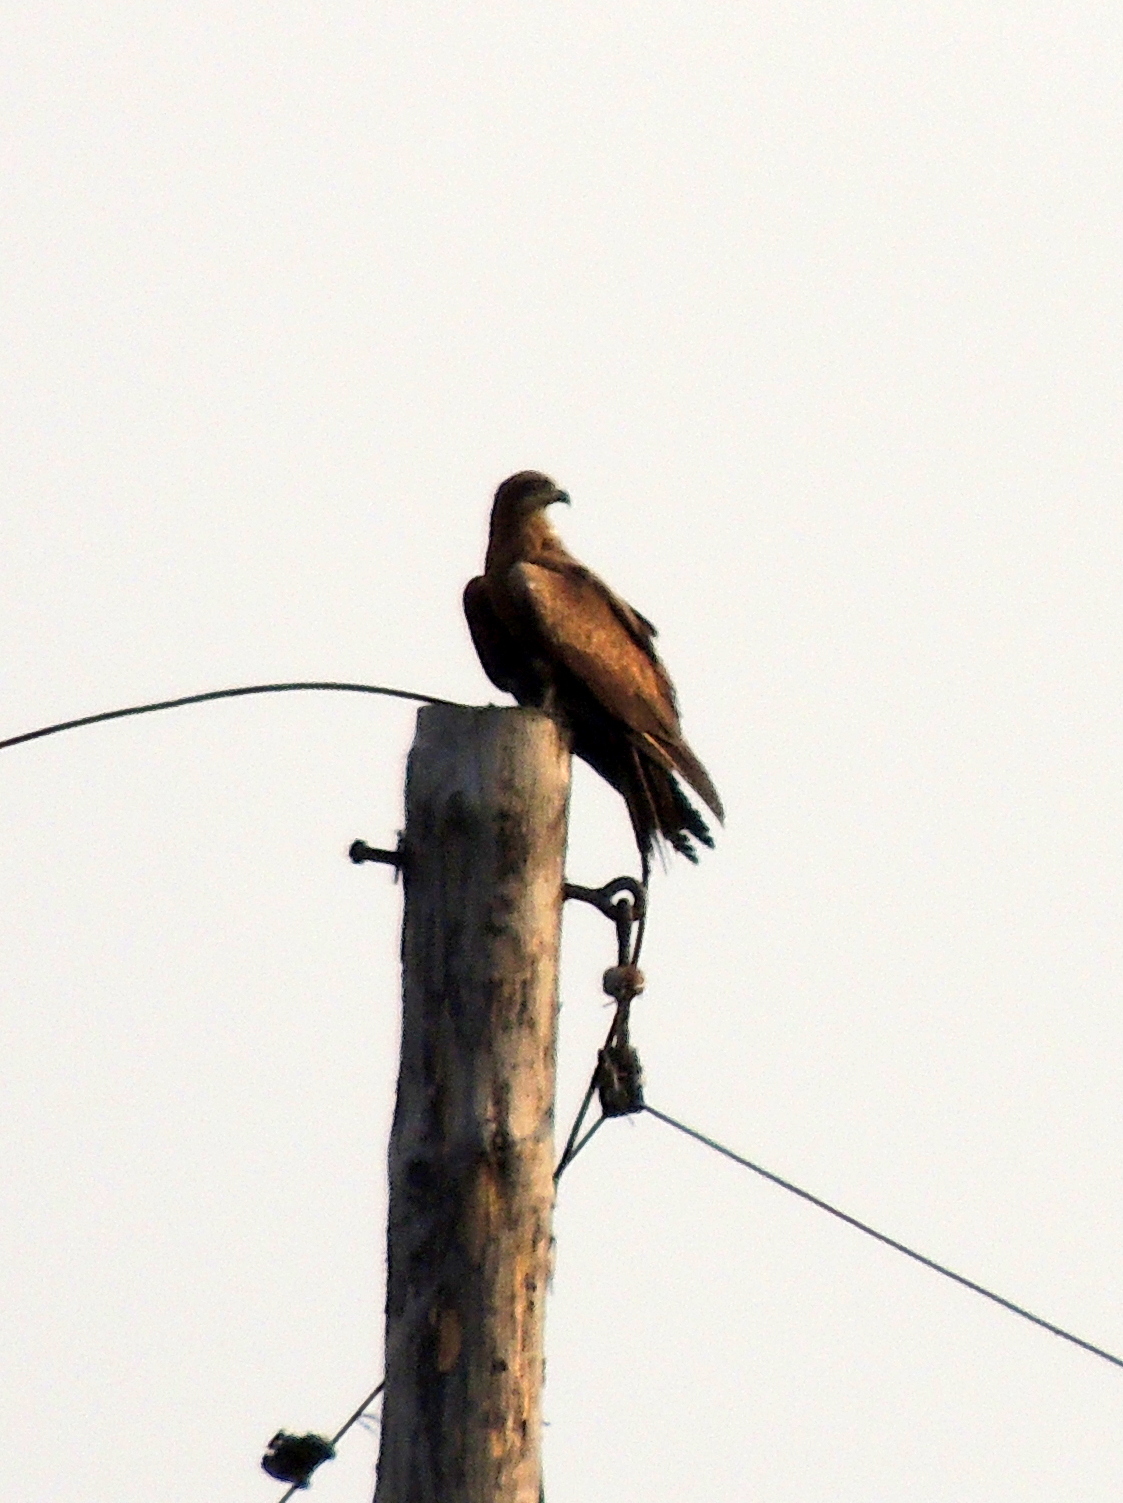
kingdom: Animalia
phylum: Chordata
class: Aves
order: Accipitriformes
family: Accipitridae
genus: Milvus
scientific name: Milvus migrans
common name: Black kite
